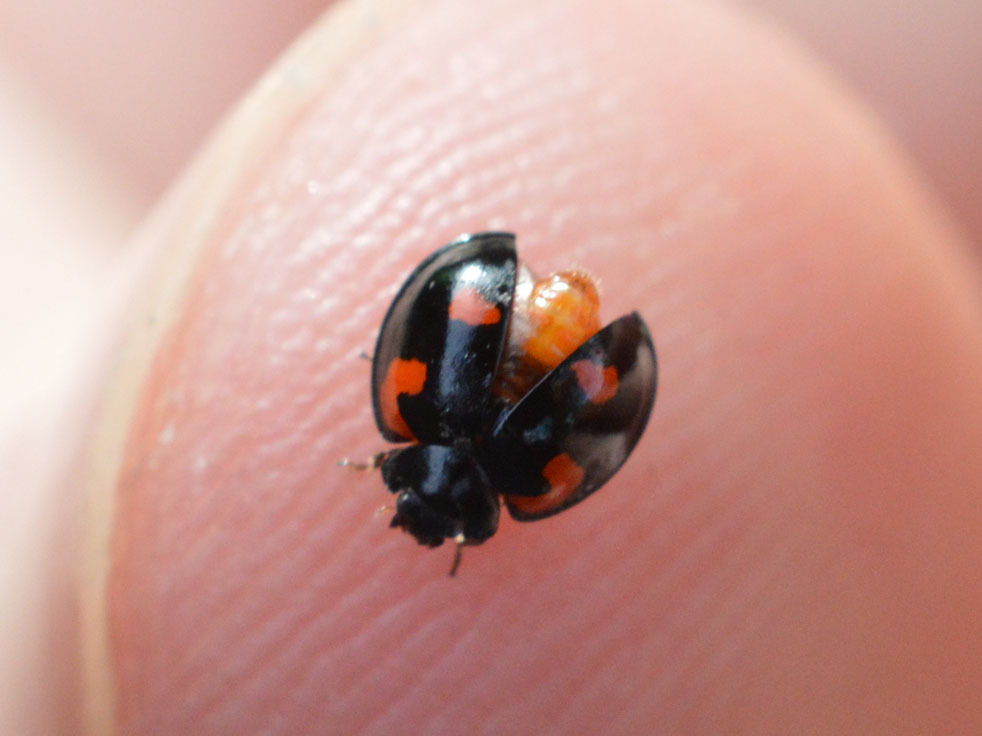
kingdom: Animalia
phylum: Arthropoda
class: Insecta
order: Coleoptera
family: Coccinellidae
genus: Brumus
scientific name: Brumus quadripustulatus
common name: Ladybird beetle
